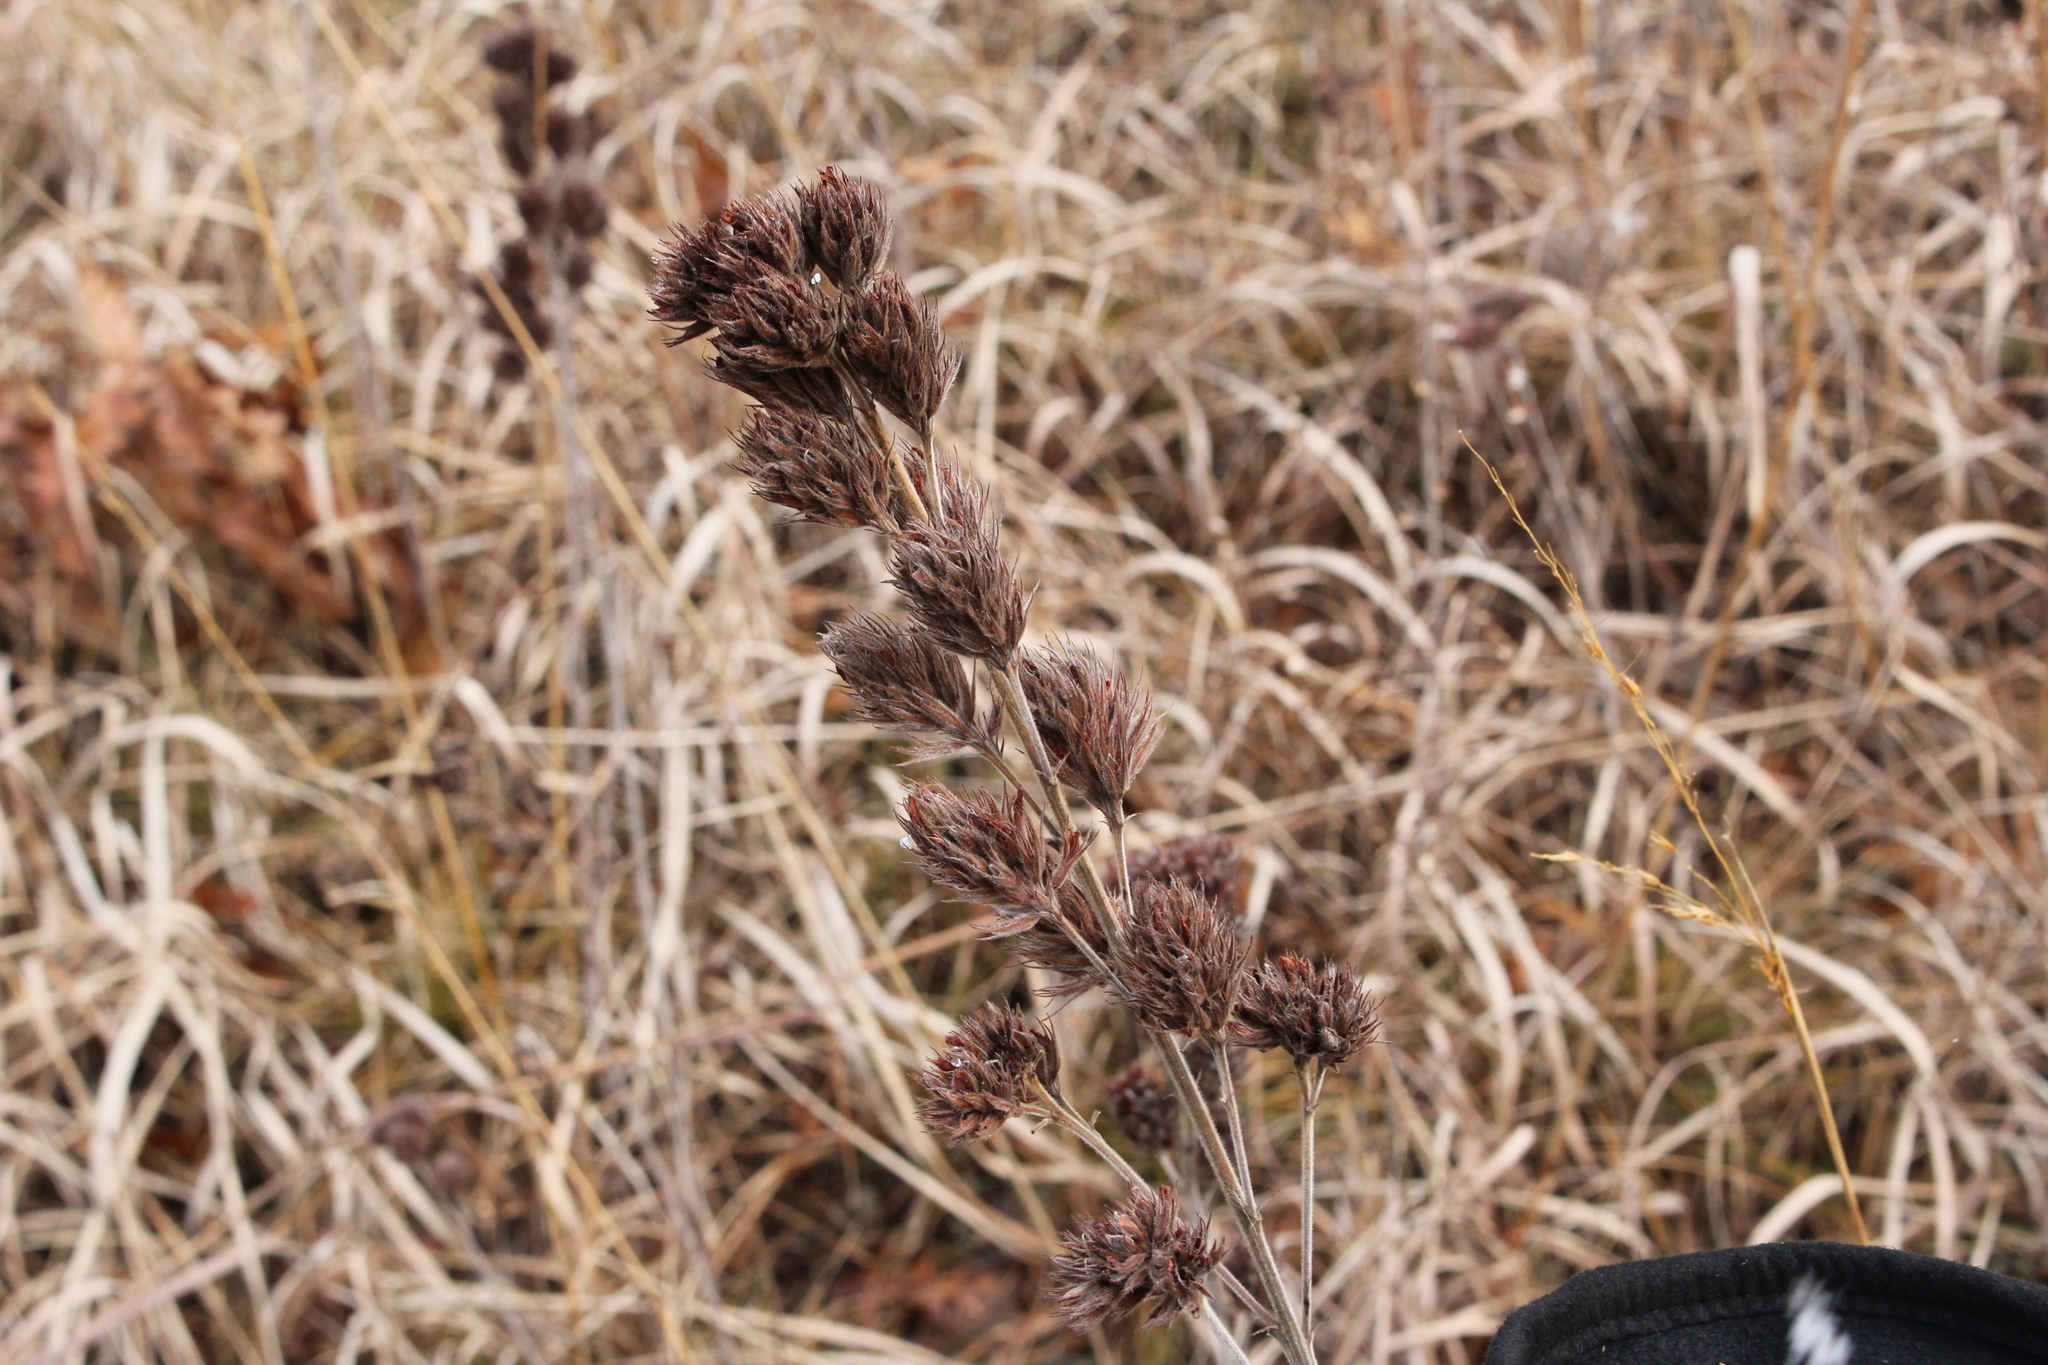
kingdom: Plantae
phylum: Tracheophyta
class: Magnoliopsida
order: Fabales
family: Fabaceae
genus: Lespedeza
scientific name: Lespedeza capitata
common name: Dusty clover
